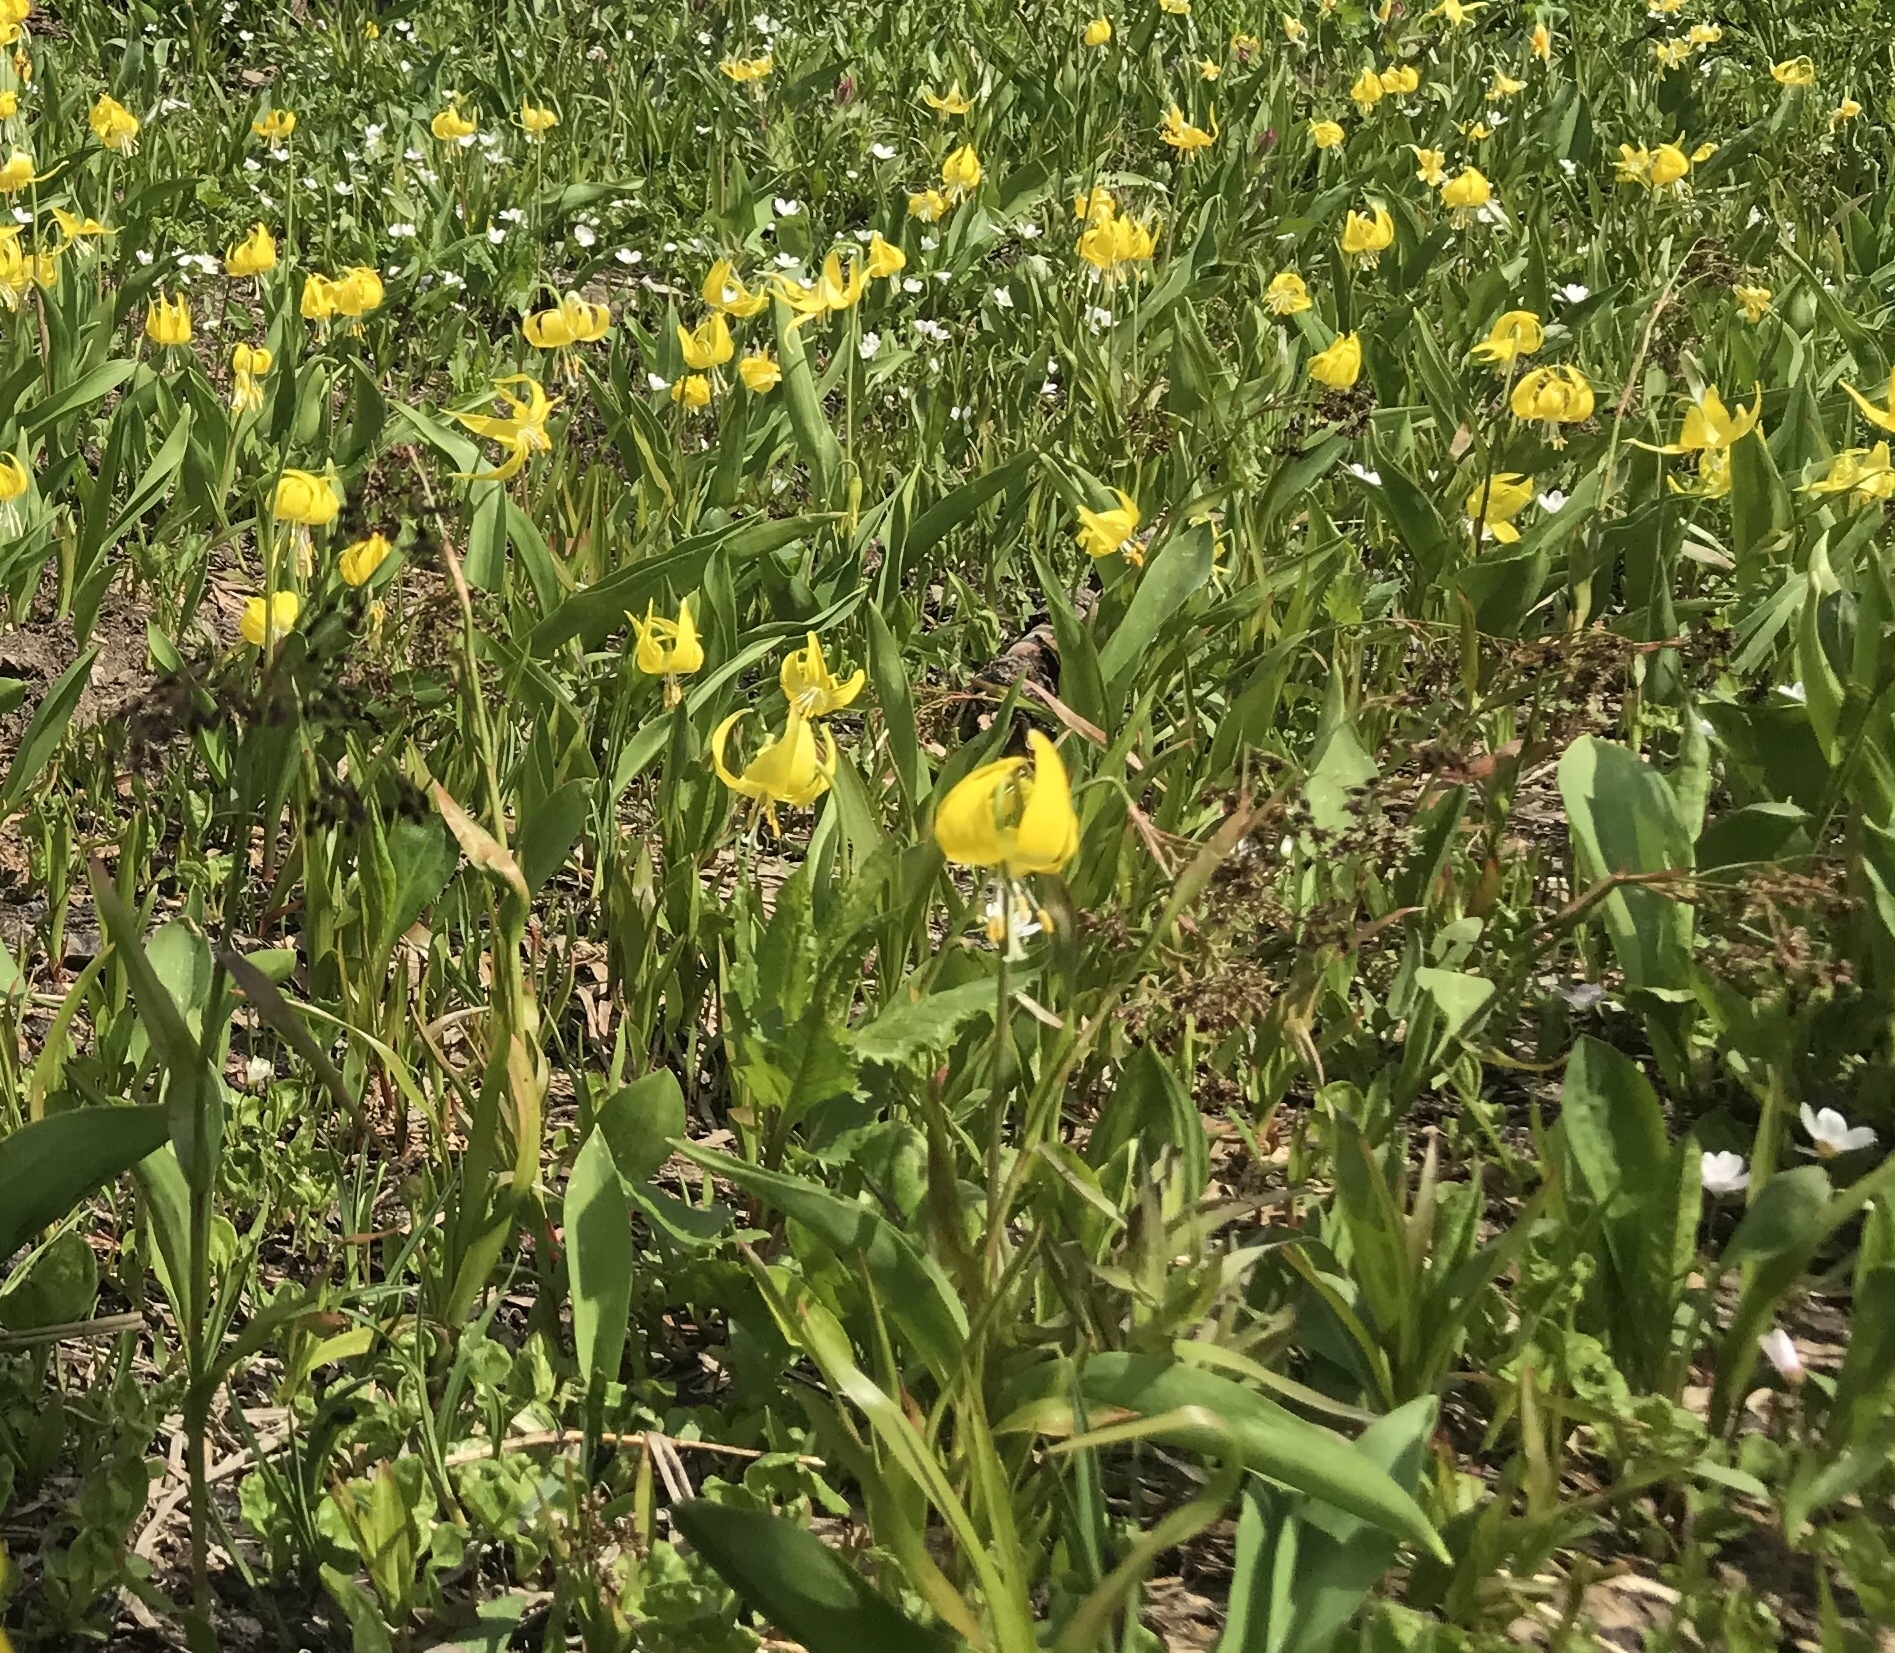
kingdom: Plantae
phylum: Tracheophyta
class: Liliopsida
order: Liliales
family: Liliaceae
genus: Erythronium
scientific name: Erythronium grandiflorum
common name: Avalanche-lily
